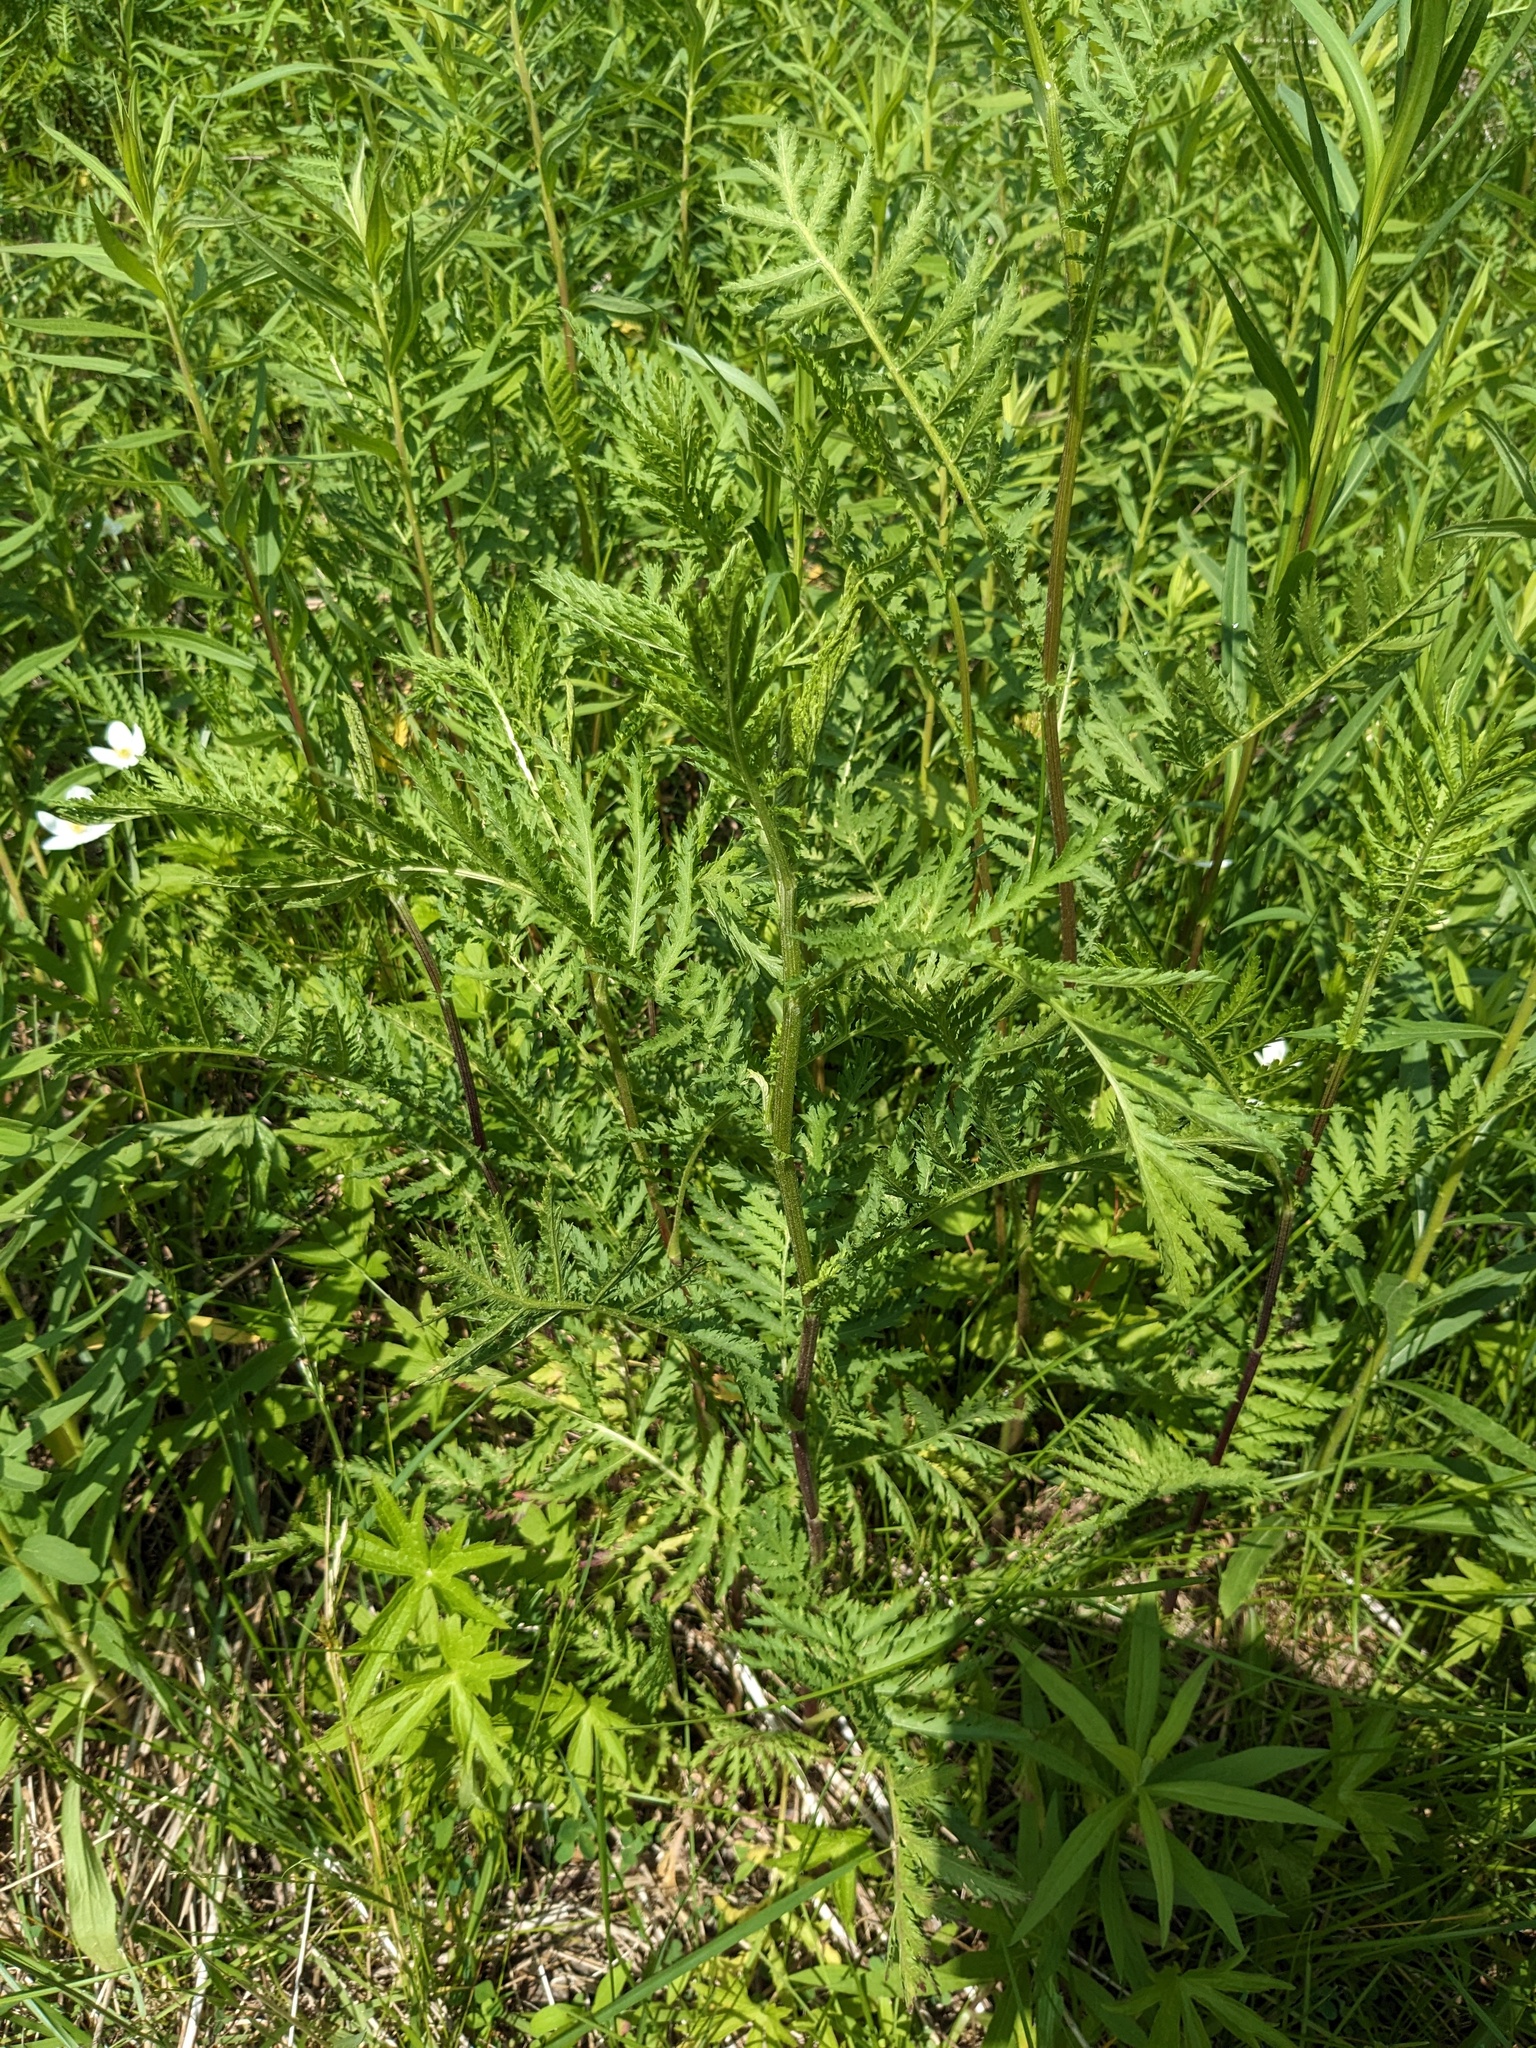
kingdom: Plantae
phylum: Tracheophyta
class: Magnoliopsida
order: Asterales
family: Asteraceae
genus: Tanacetum
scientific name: Tanacetum vulgare
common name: Common tansy
